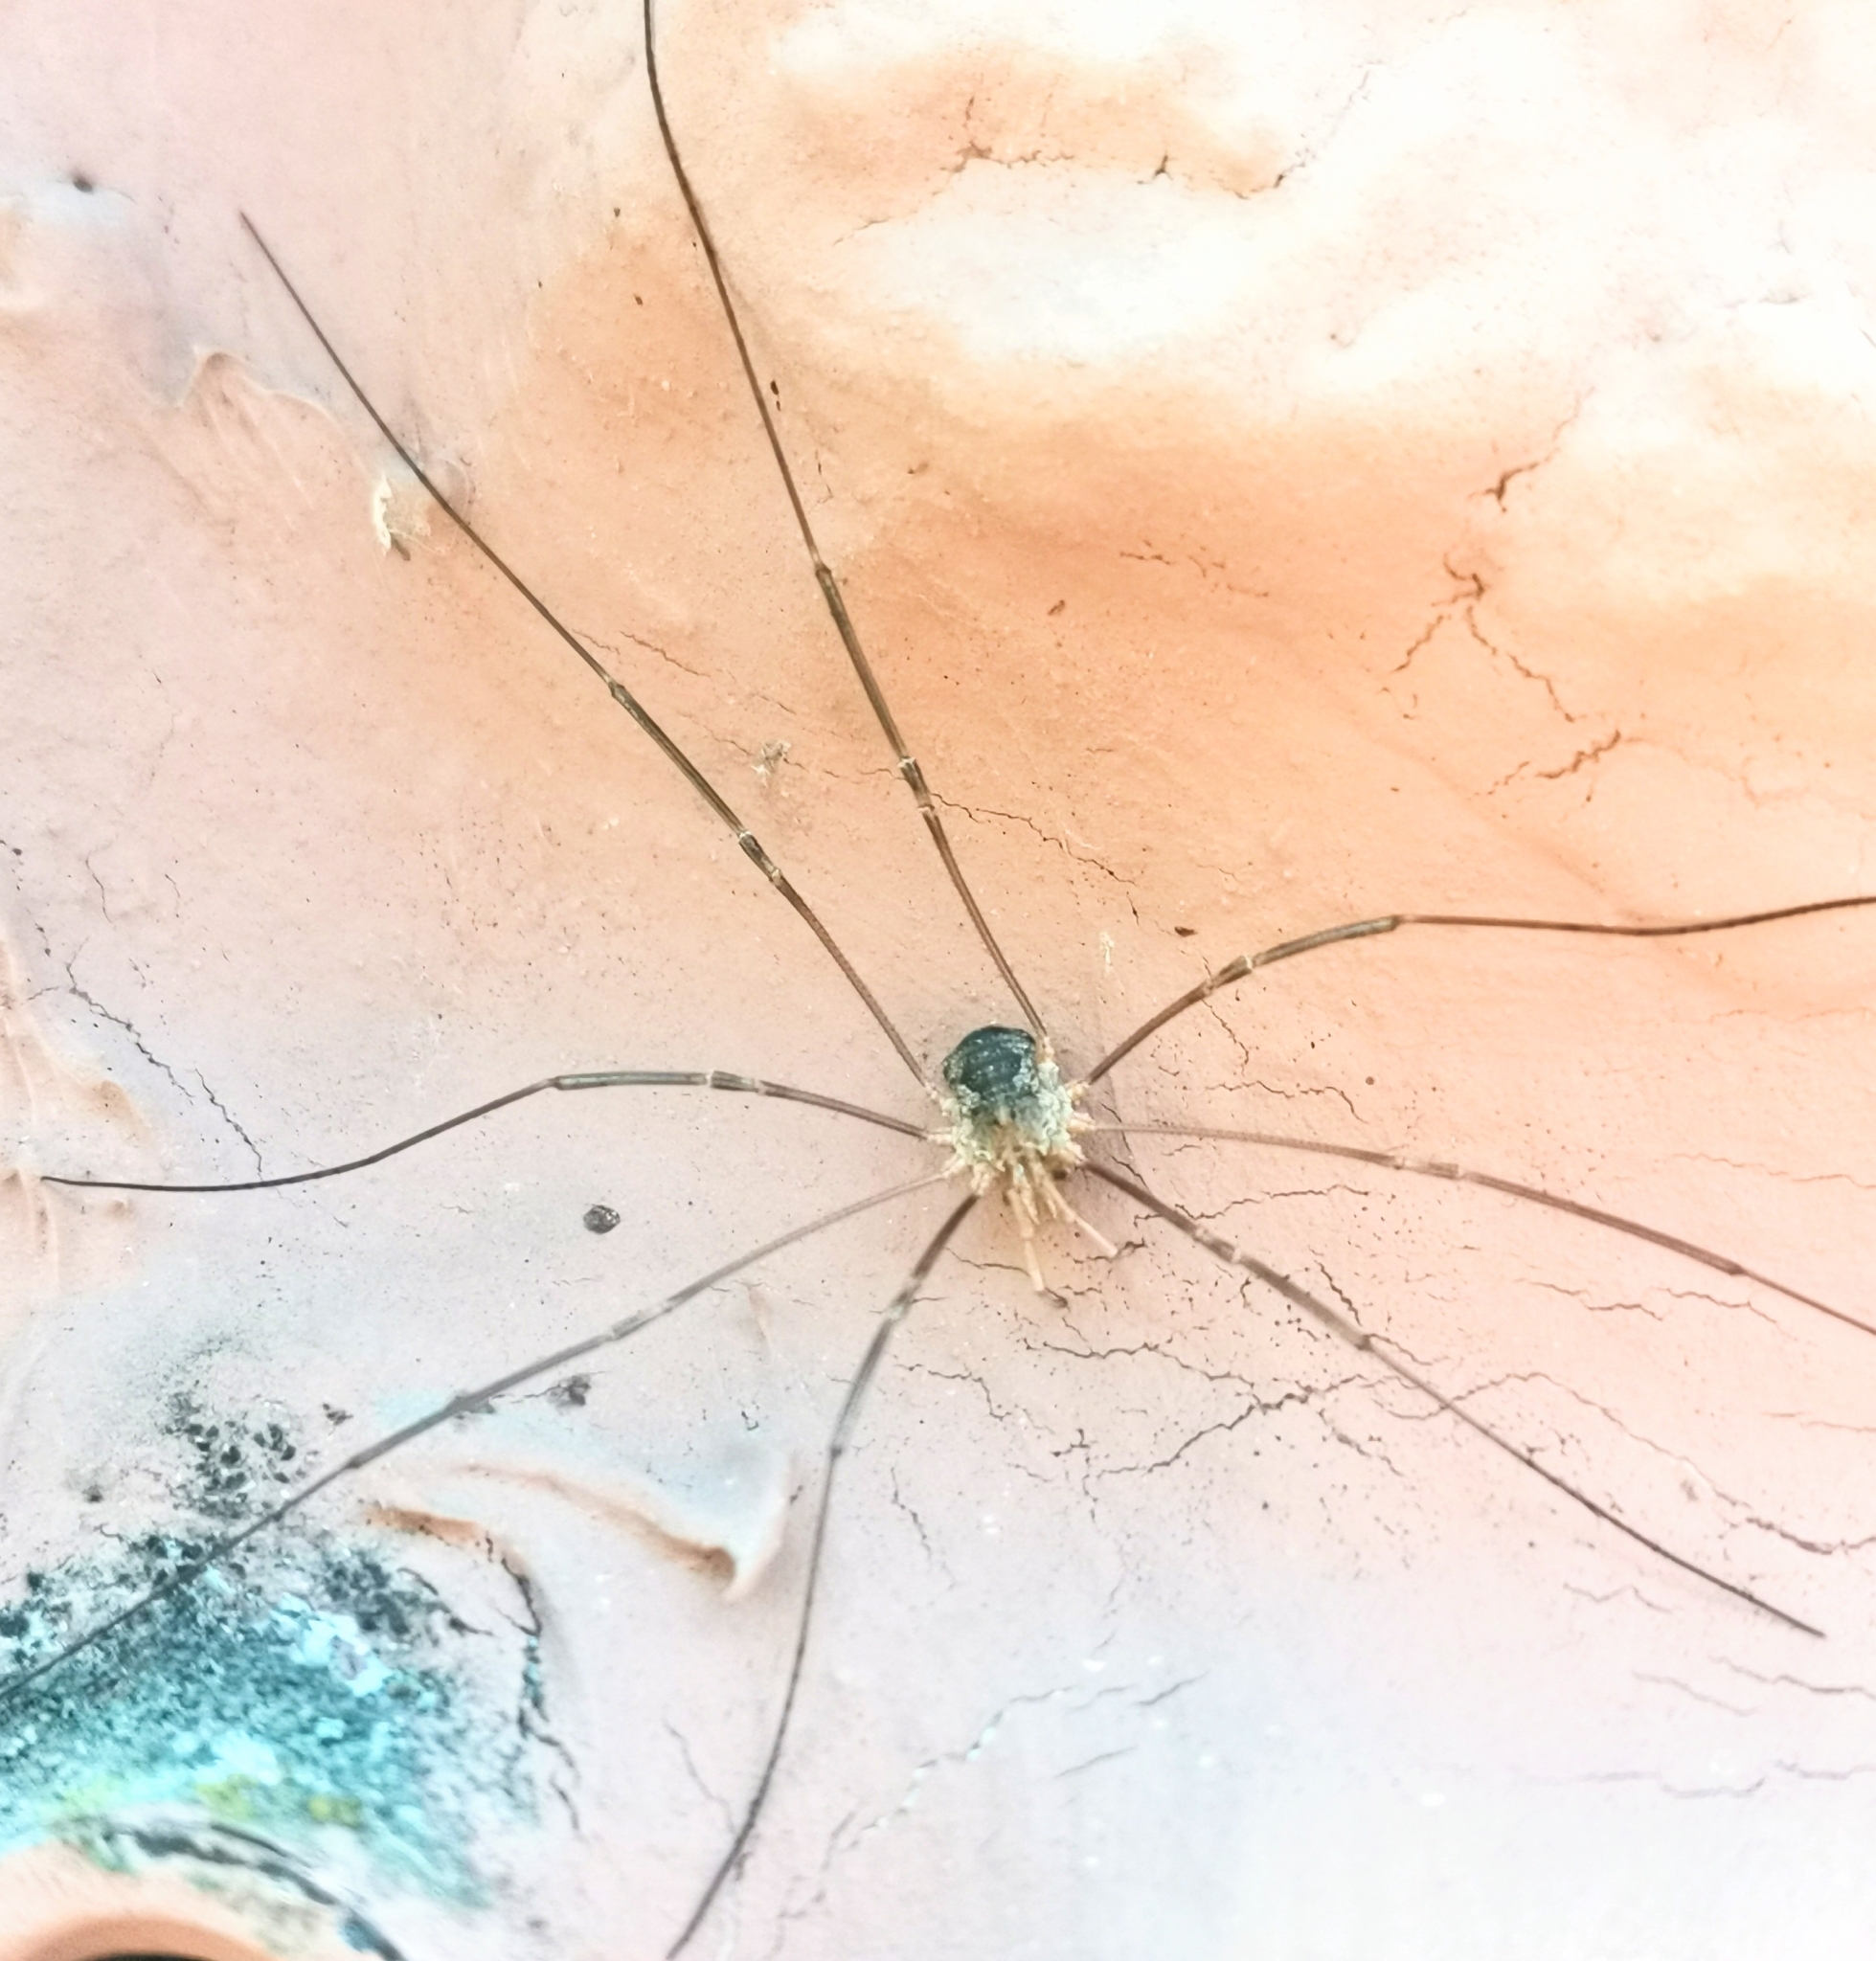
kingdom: Animalia
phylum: Arthropoda
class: Arachnida
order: Opiliones
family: Phalangiidae
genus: Phalangium
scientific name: Phalangium opilio
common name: Daddy longleg
